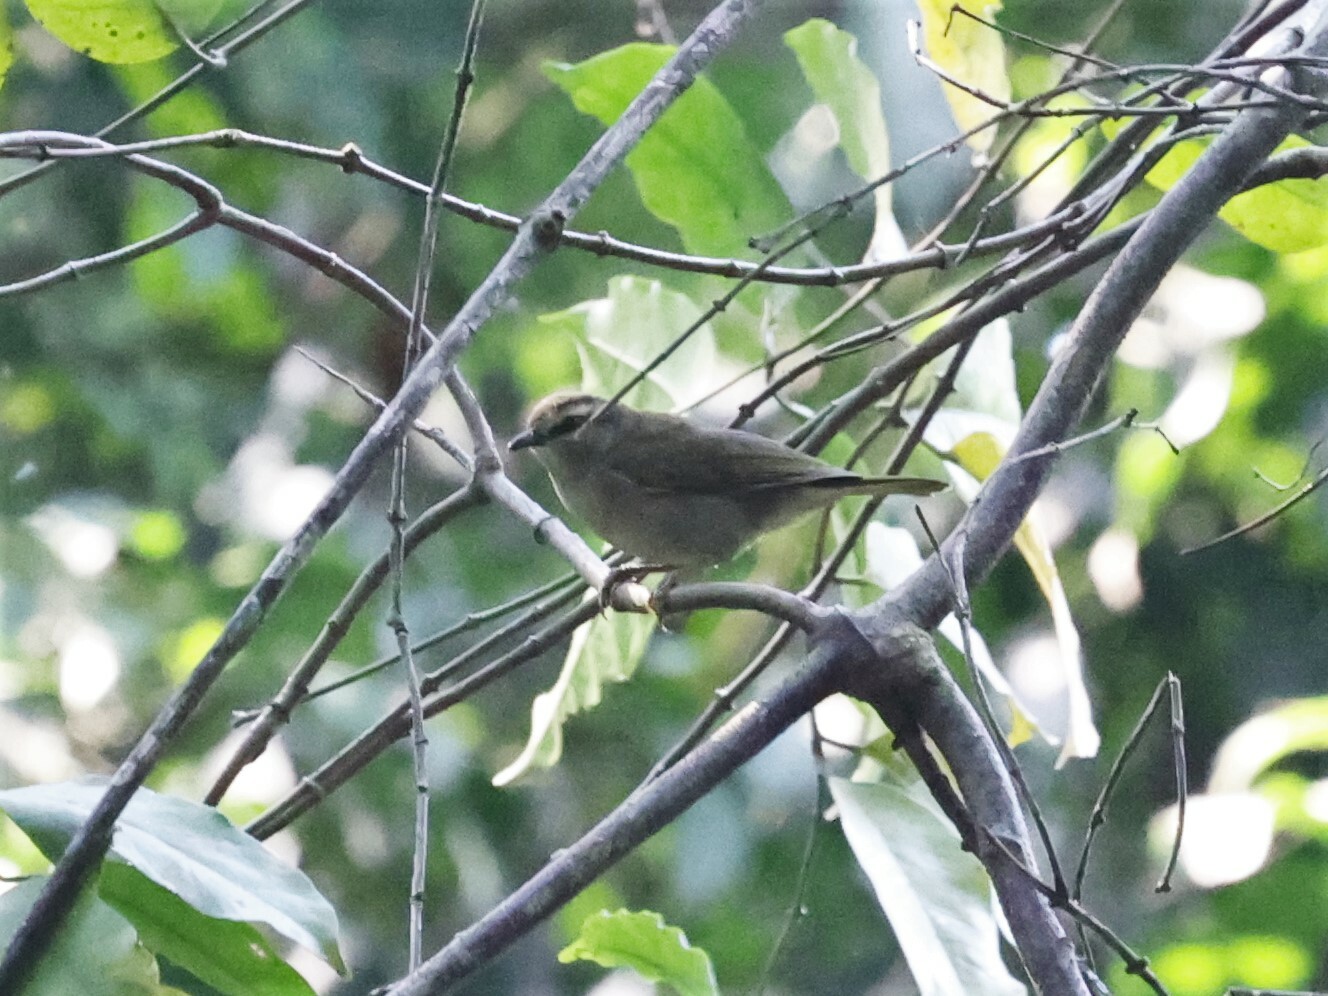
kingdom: Animalia
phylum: Chordata
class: Aves
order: Passeriformes
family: Cettiidae
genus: Hylia
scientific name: Hylia prasina
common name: Green hylia
